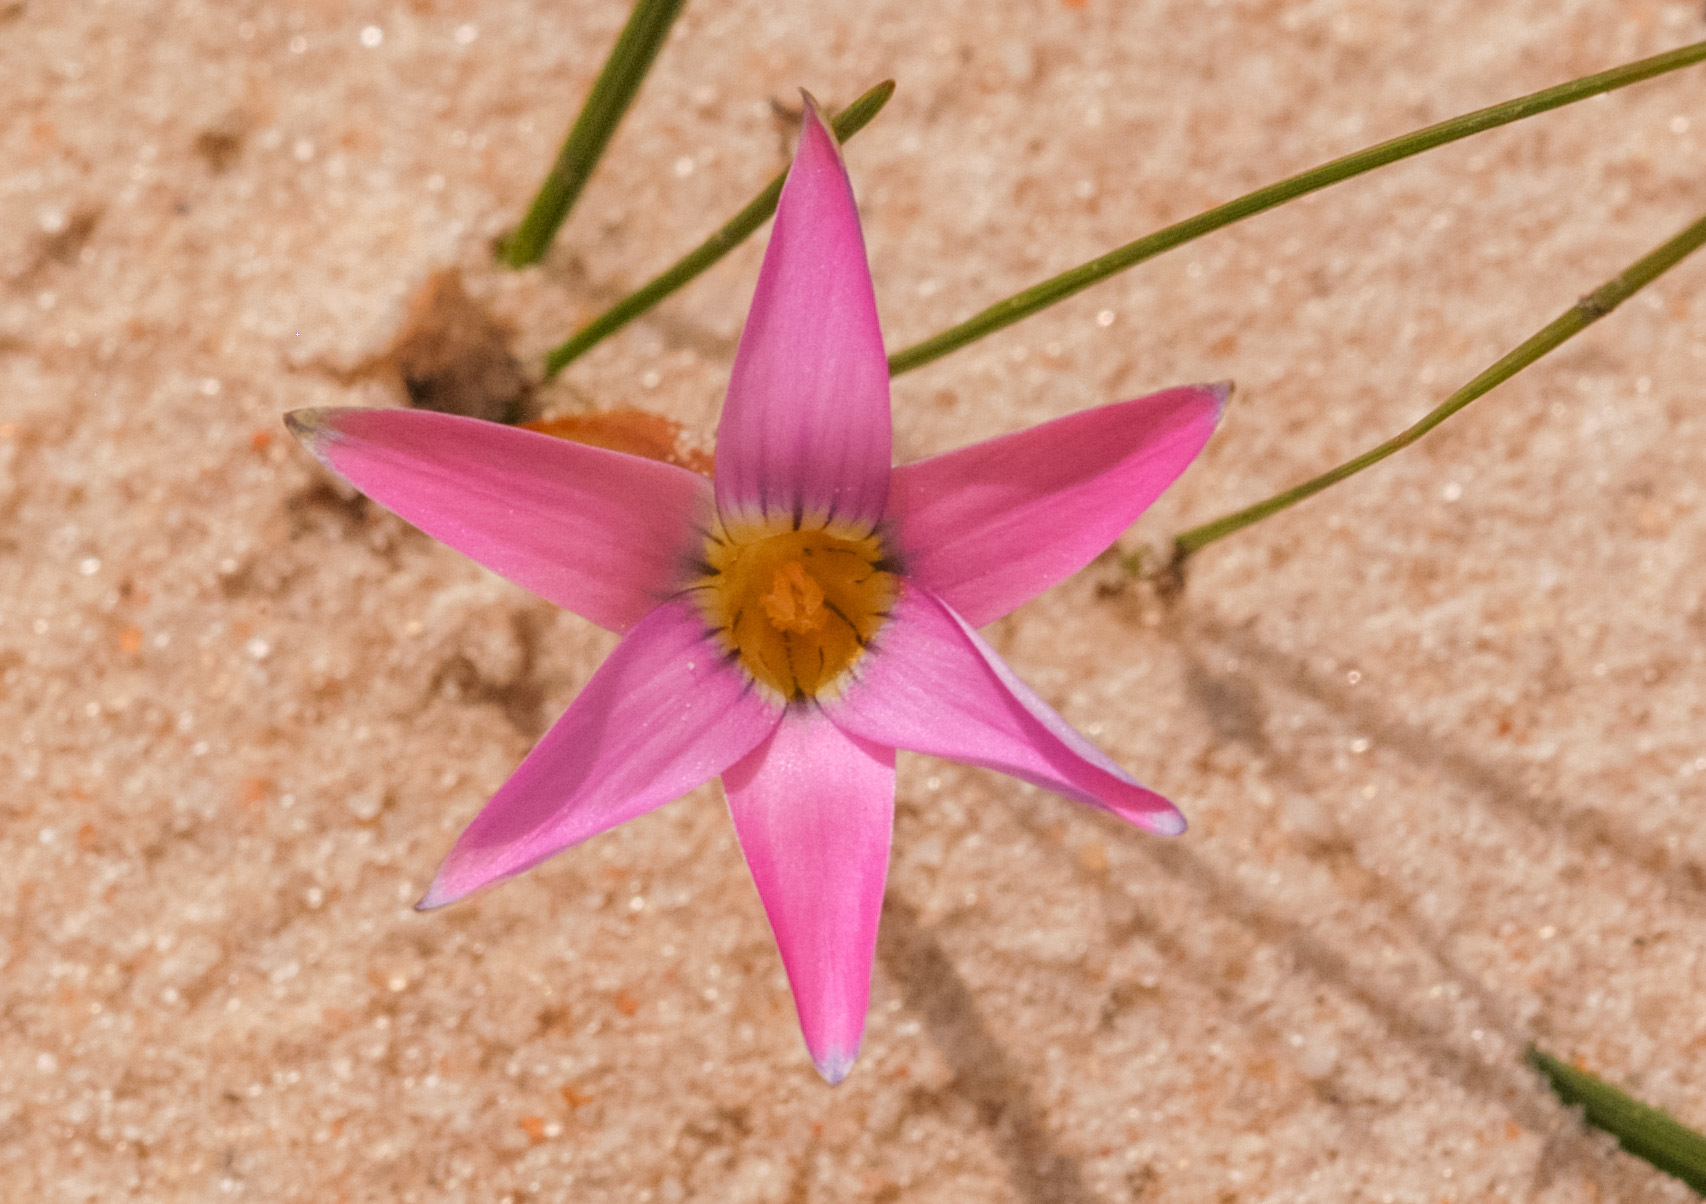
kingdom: Plantae
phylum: Tracheophyta
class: Liliopsida
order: Asparagales
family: Iridaceae
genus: Romulea
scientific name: Romulea rosea
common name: Oniongrass
